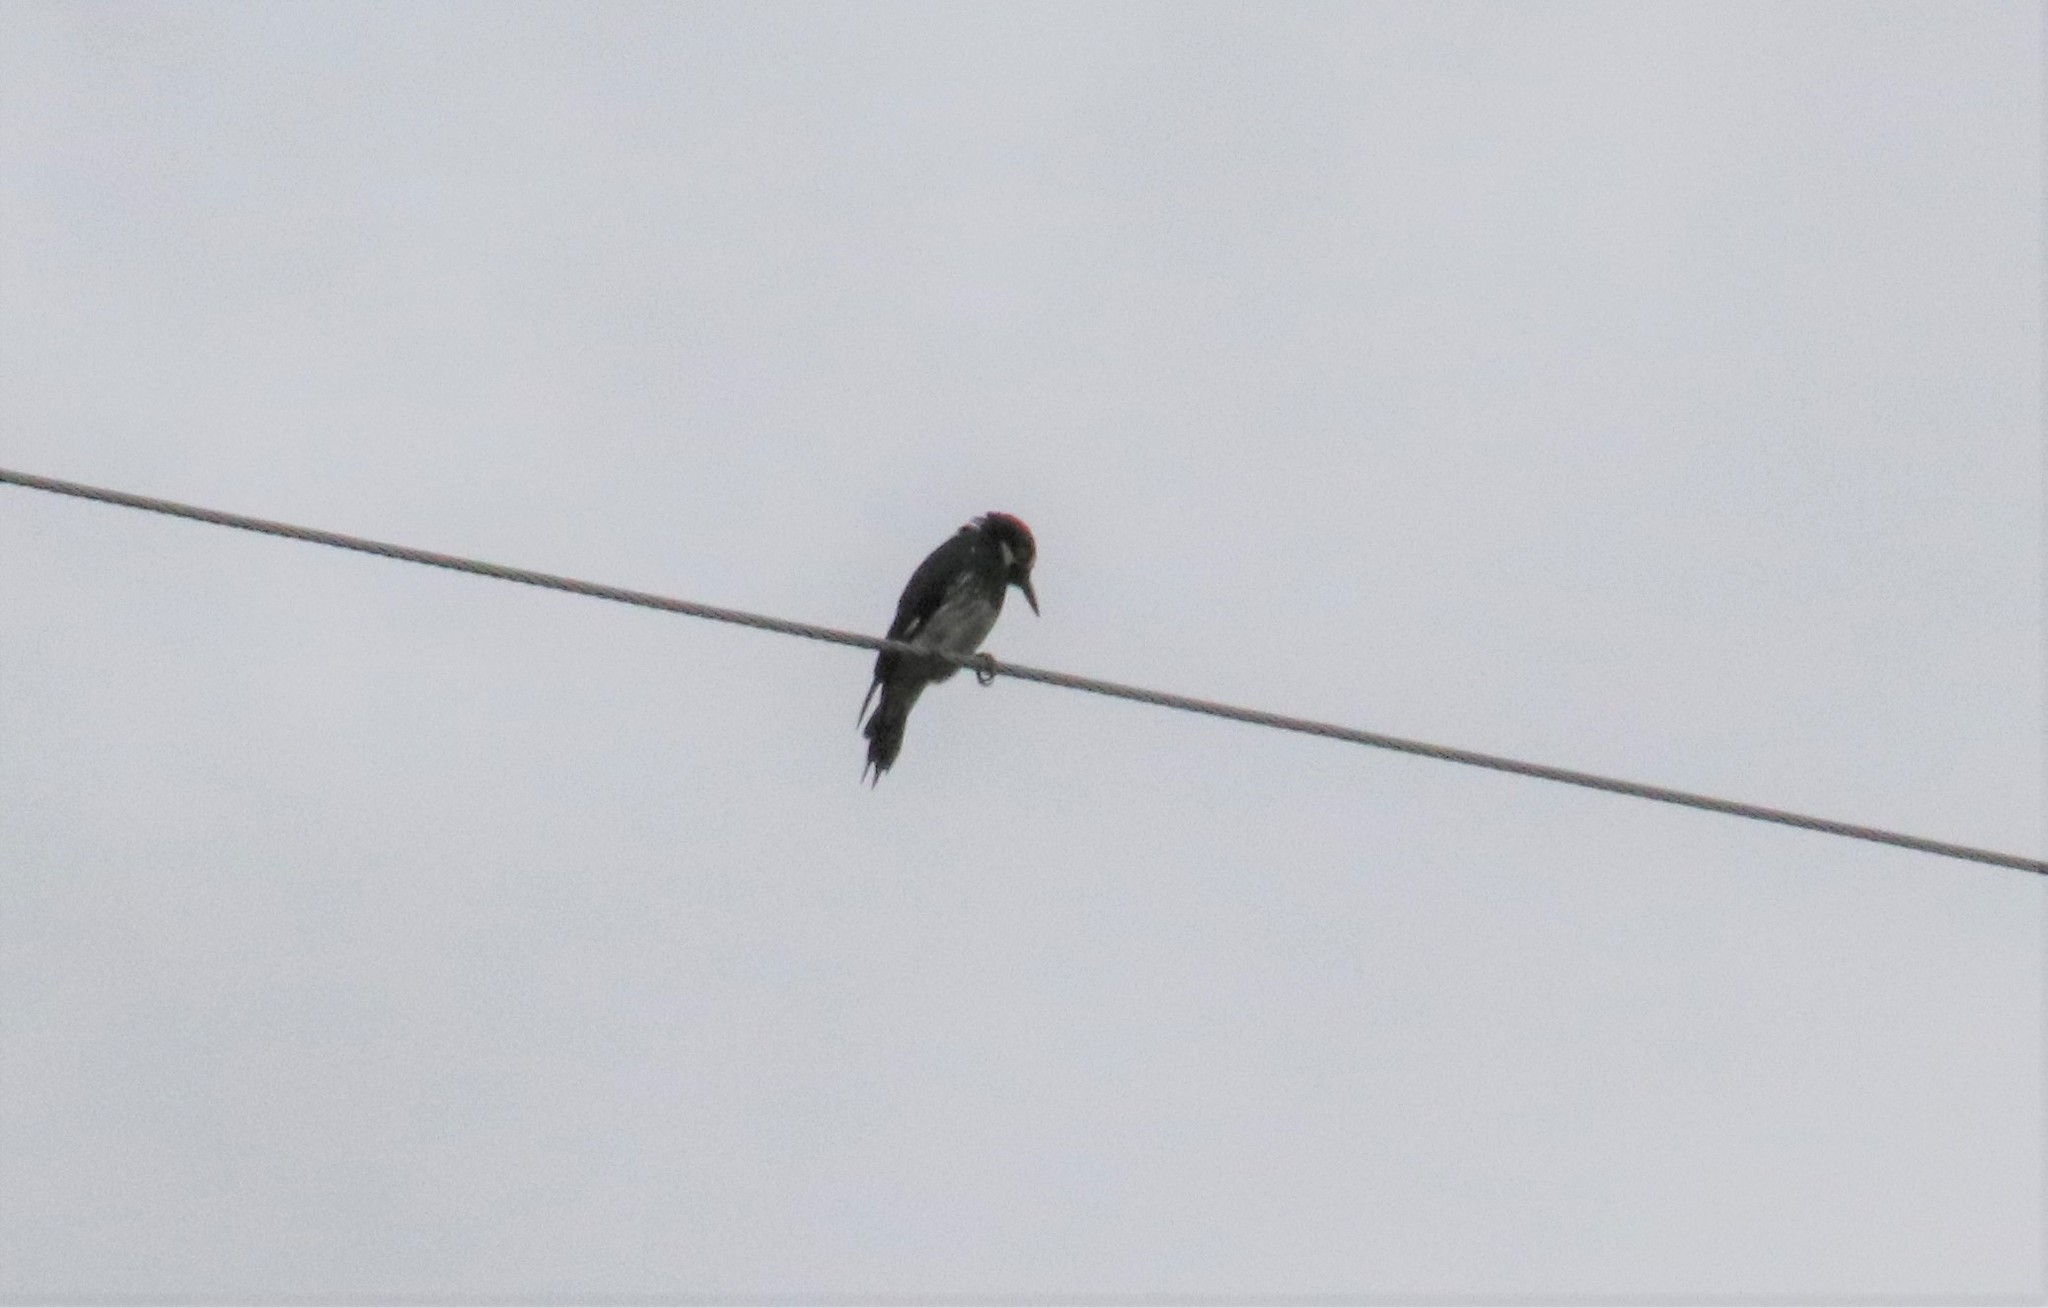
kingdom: Animalia
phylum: Chordata
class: Aves
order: Piciformes
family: Picidae
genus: Melanerpes
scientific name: Melanerpes formicivorus
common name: Acorn woodpecker
